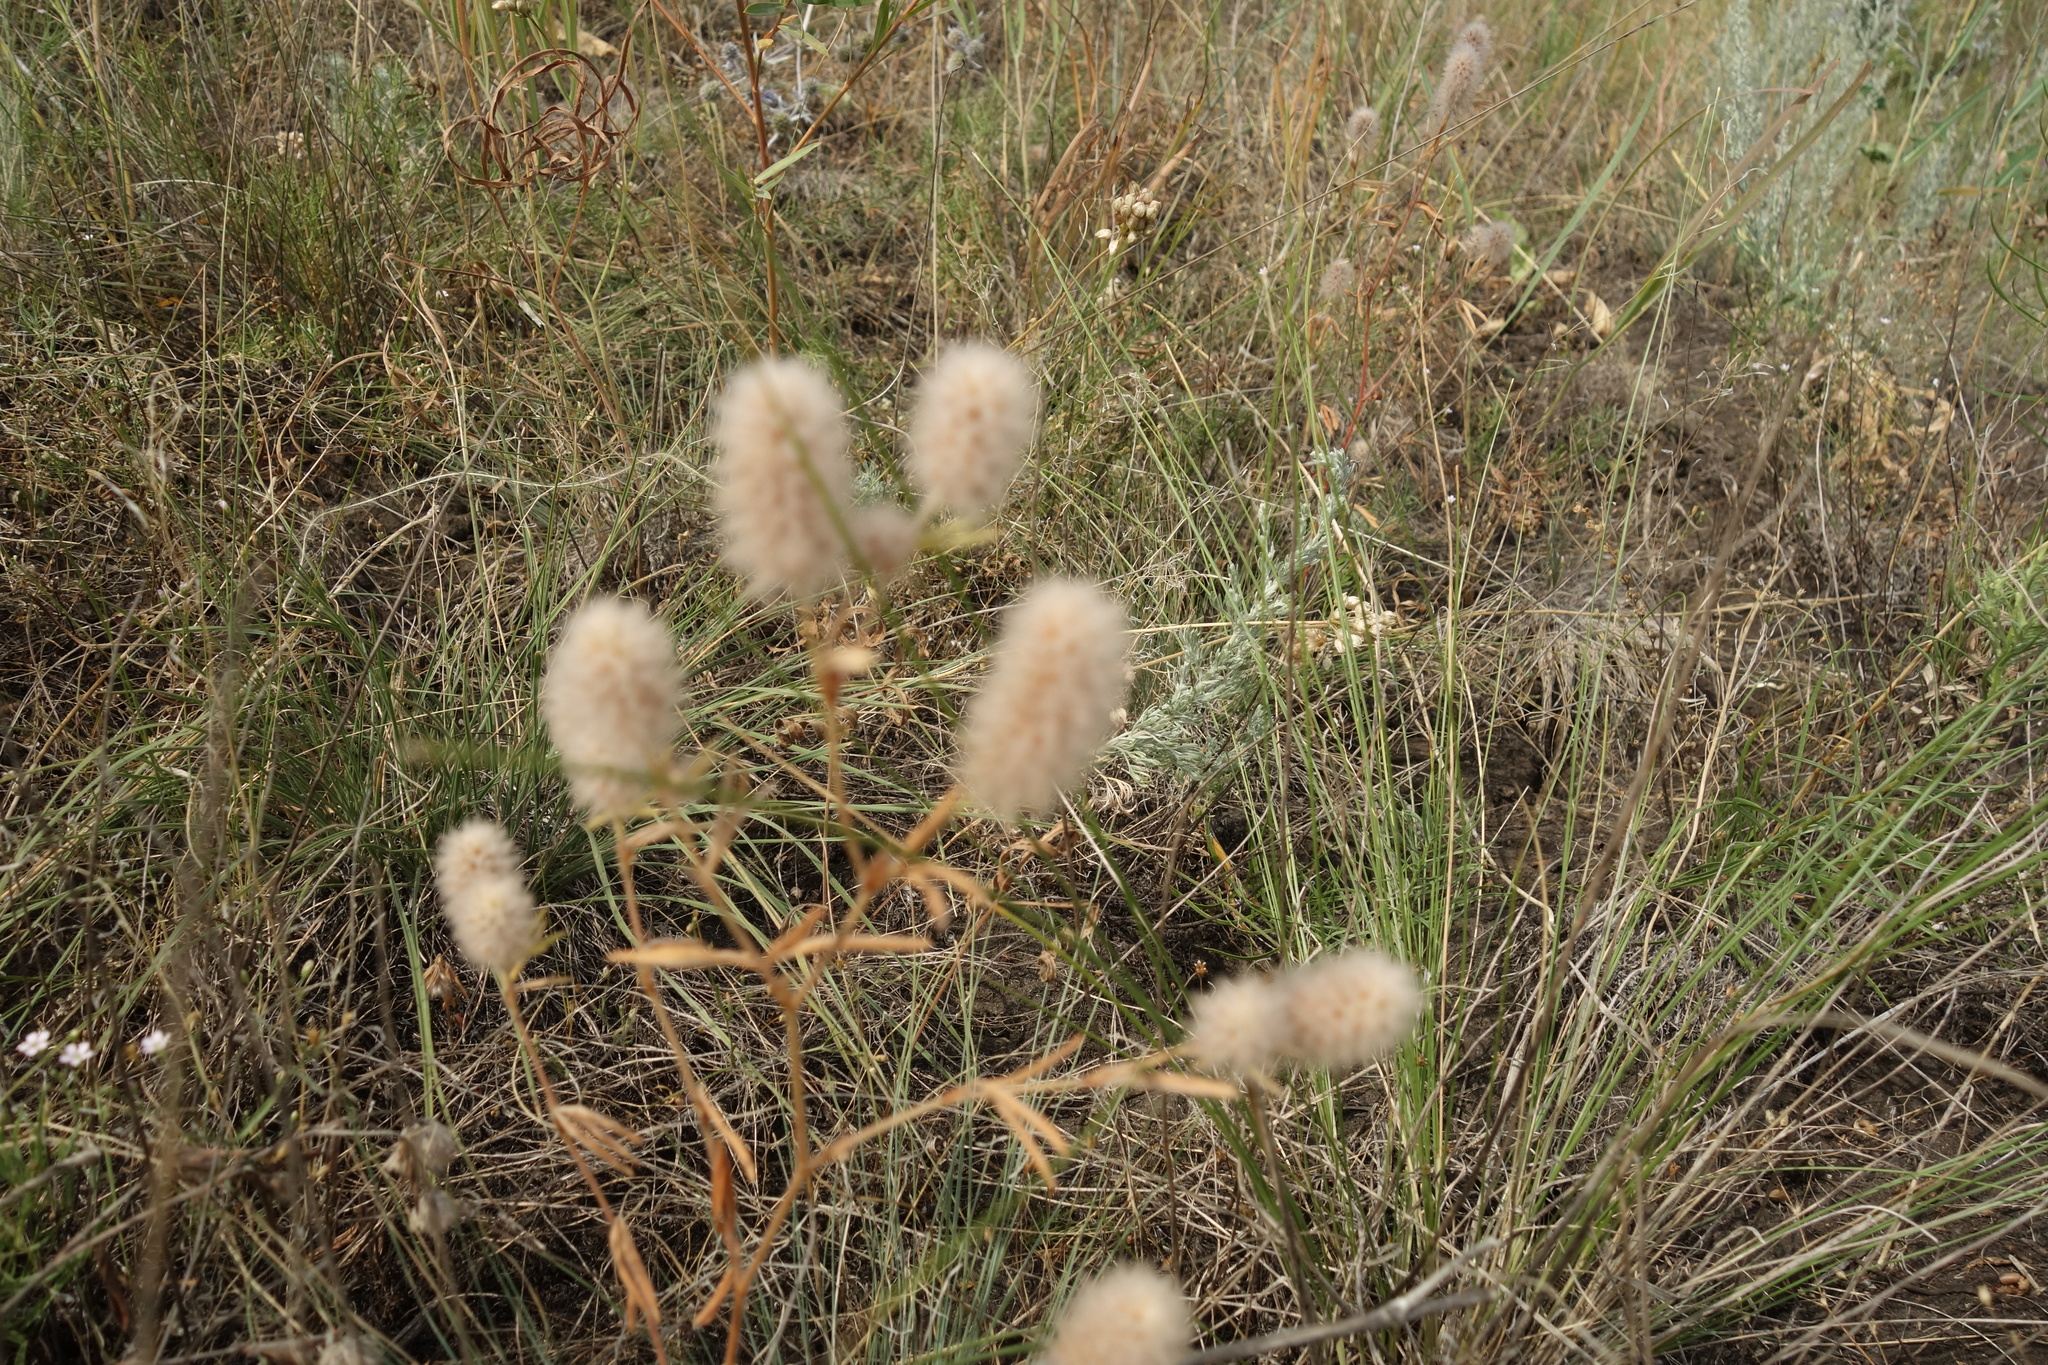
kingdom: Plantae
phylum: Tracheophyta
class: Magnoliopsida
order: Fabales
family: Fabaceae
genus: Trifolium
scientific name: Trifolium arvense
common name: Hare's-foot clover
